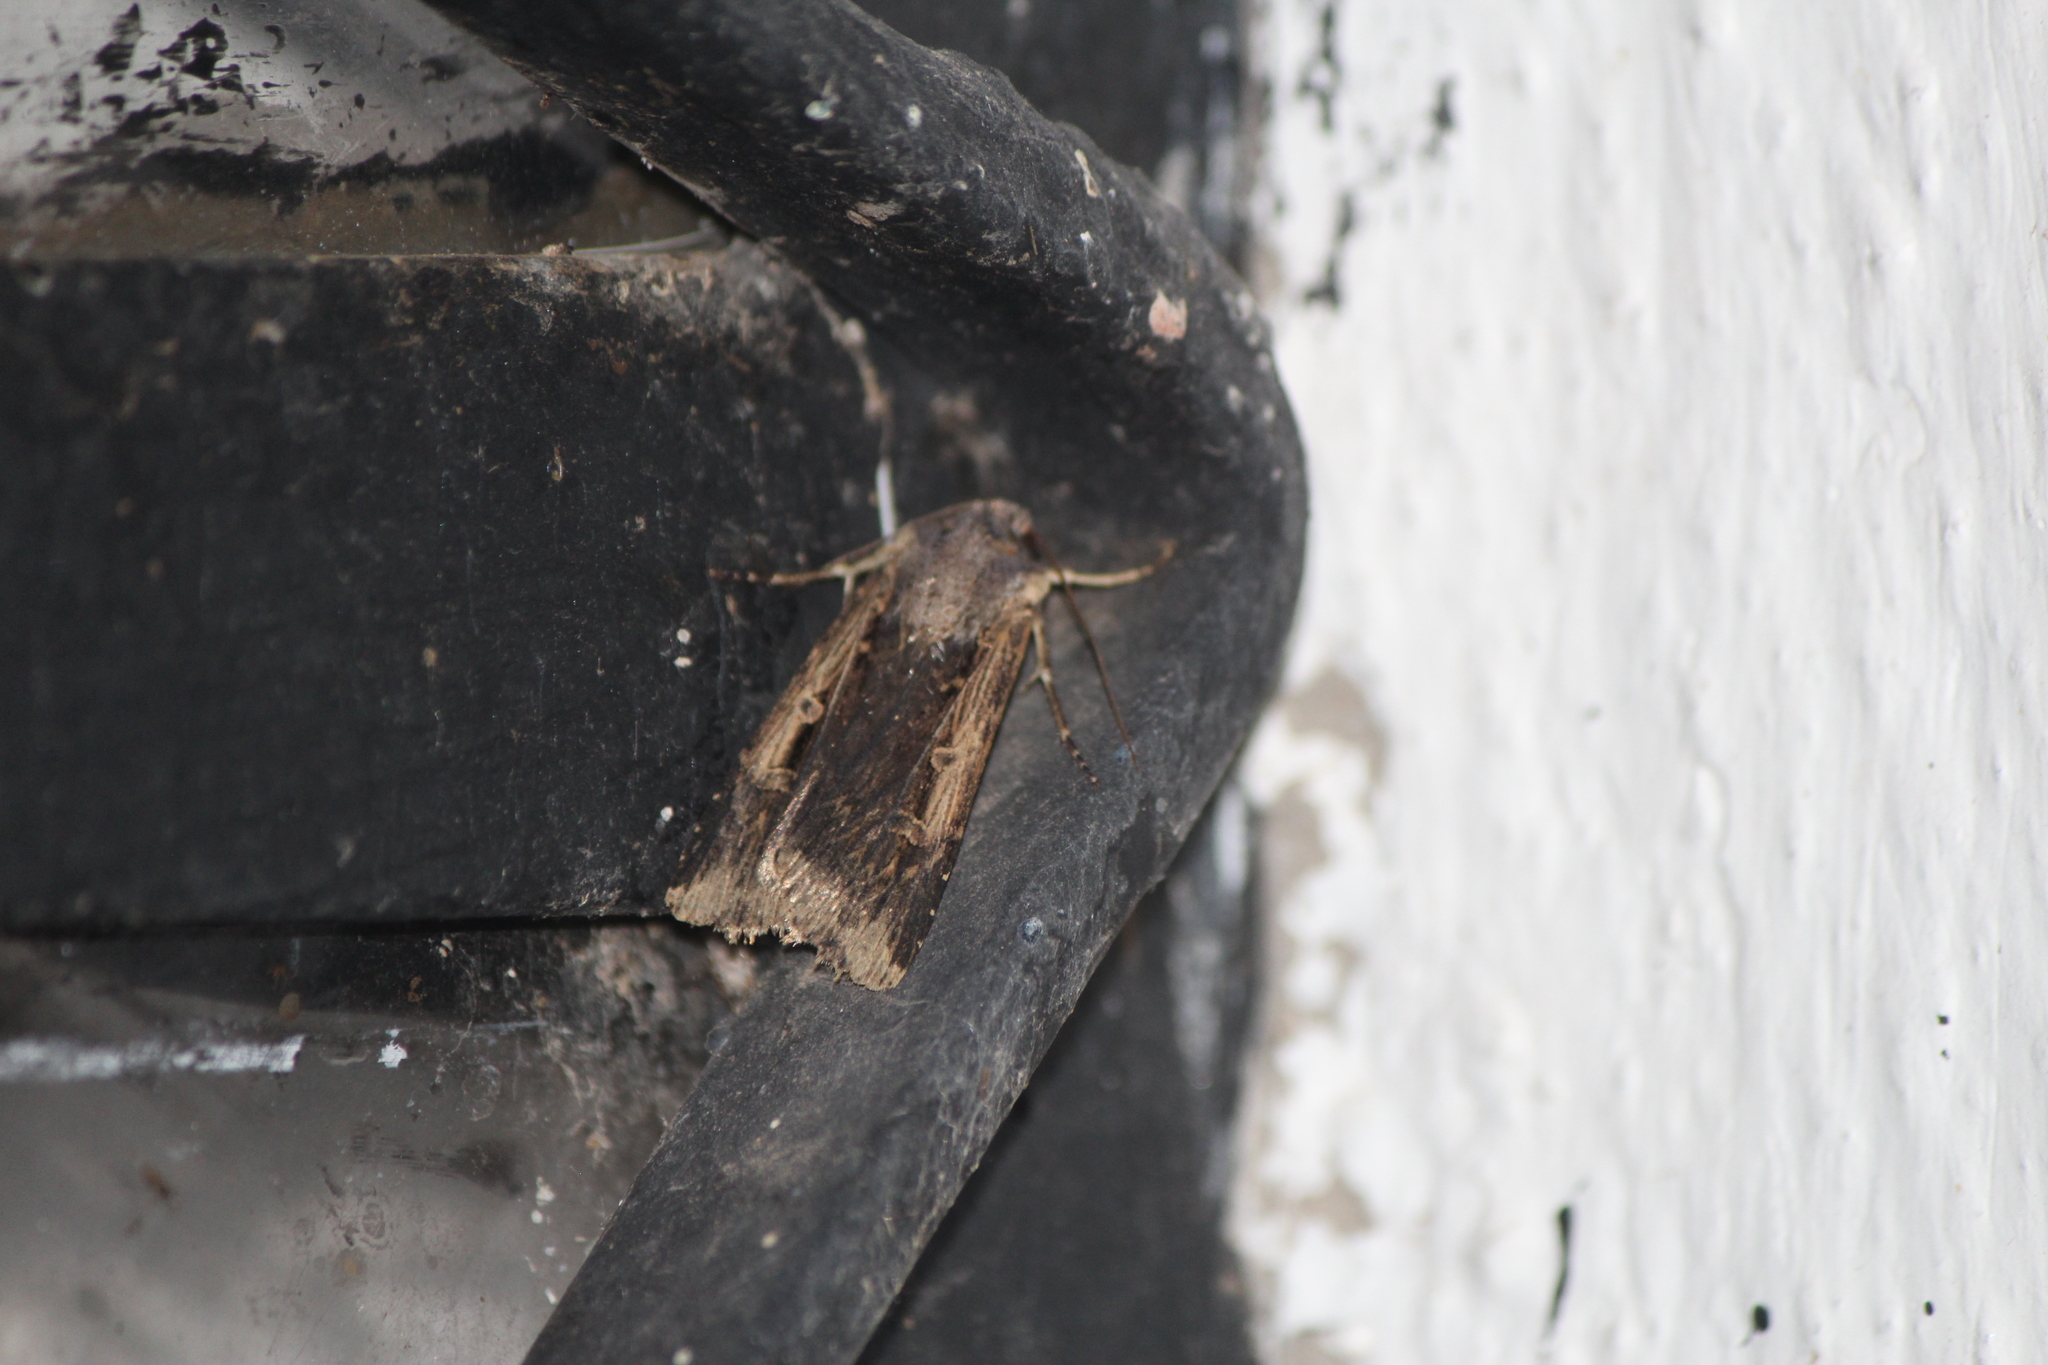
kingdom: Animalia
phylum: Arthropoda
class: Insecta
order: Lepidoptera
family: Noctuidae
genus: Feltia
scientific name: Feltia subterranea
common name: Granulate cutworm
